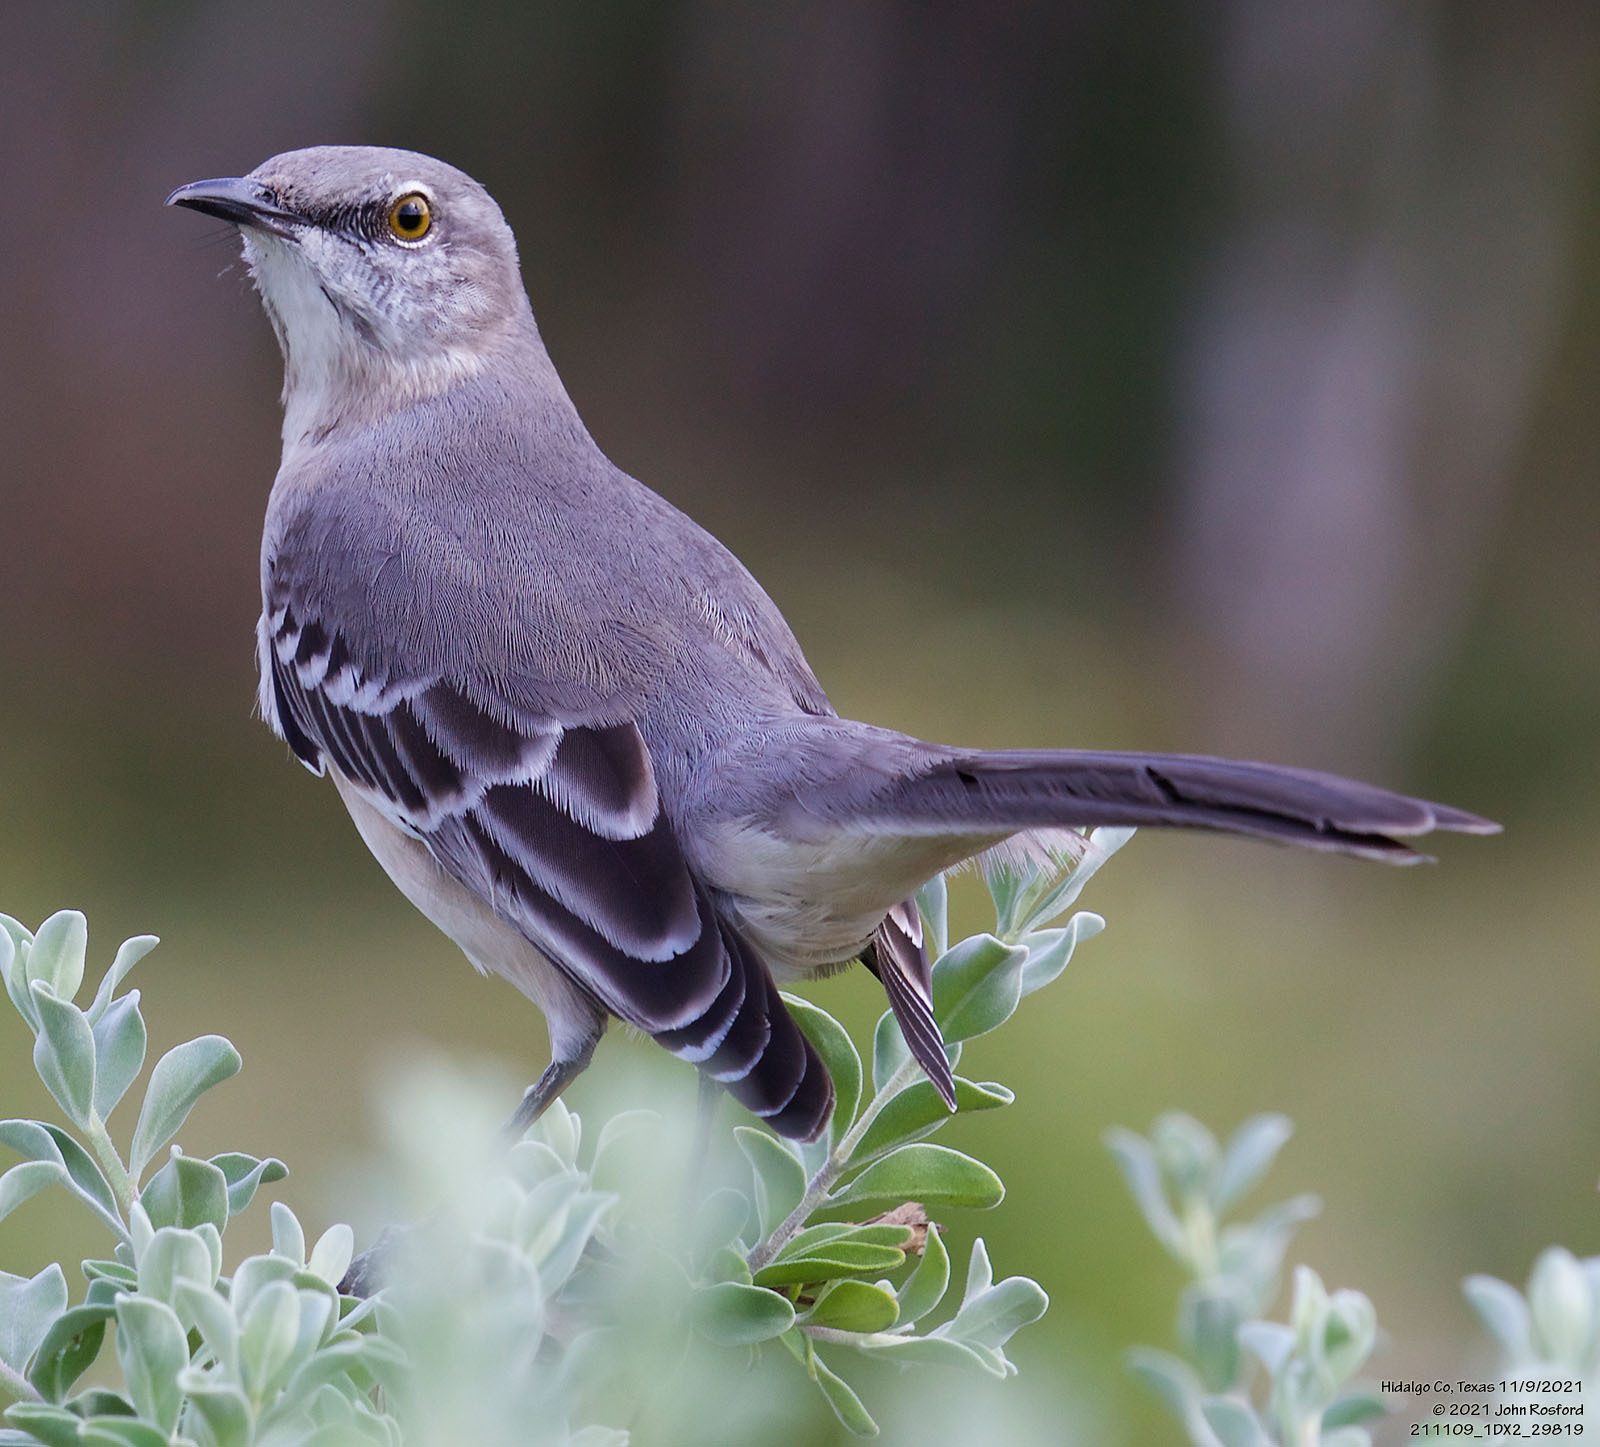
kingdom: Animalia
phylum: Chordata
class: Aves
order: Passeriformes
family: Mimidae
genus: Mimus
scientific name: Mimus polyglottos
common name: Northern mockingbird
